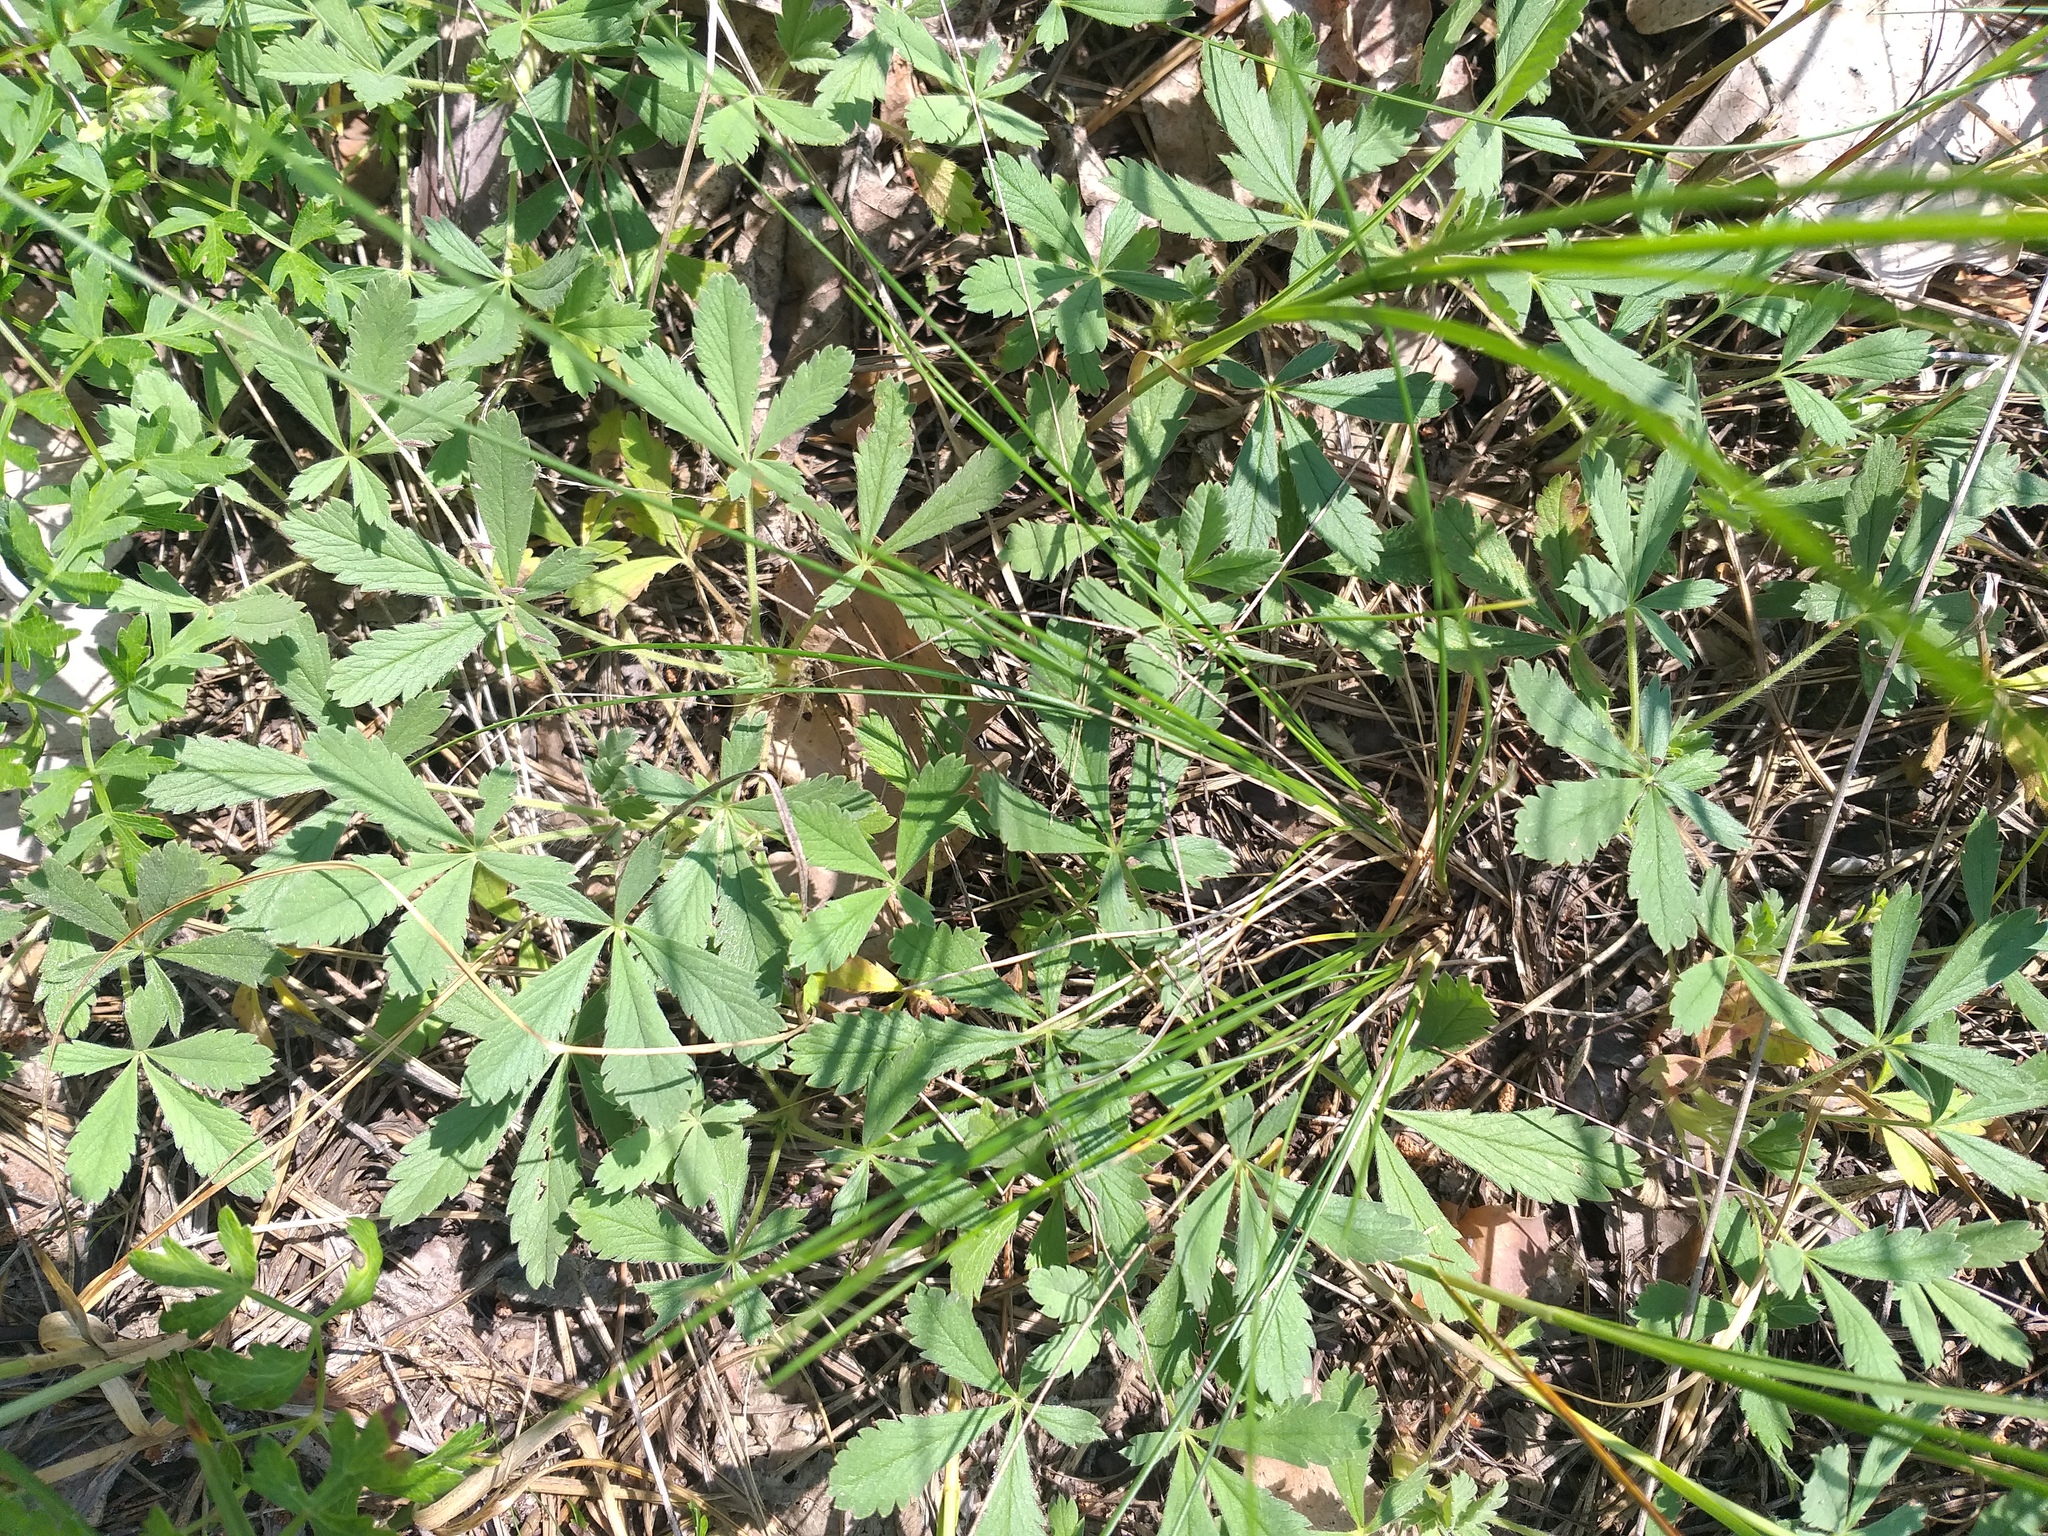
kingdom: Plantae
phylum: Tracheophyta
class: Magnoliopsida
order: Rosales
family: Rosaceae
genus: Potentilla
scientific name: Potentilla incana
